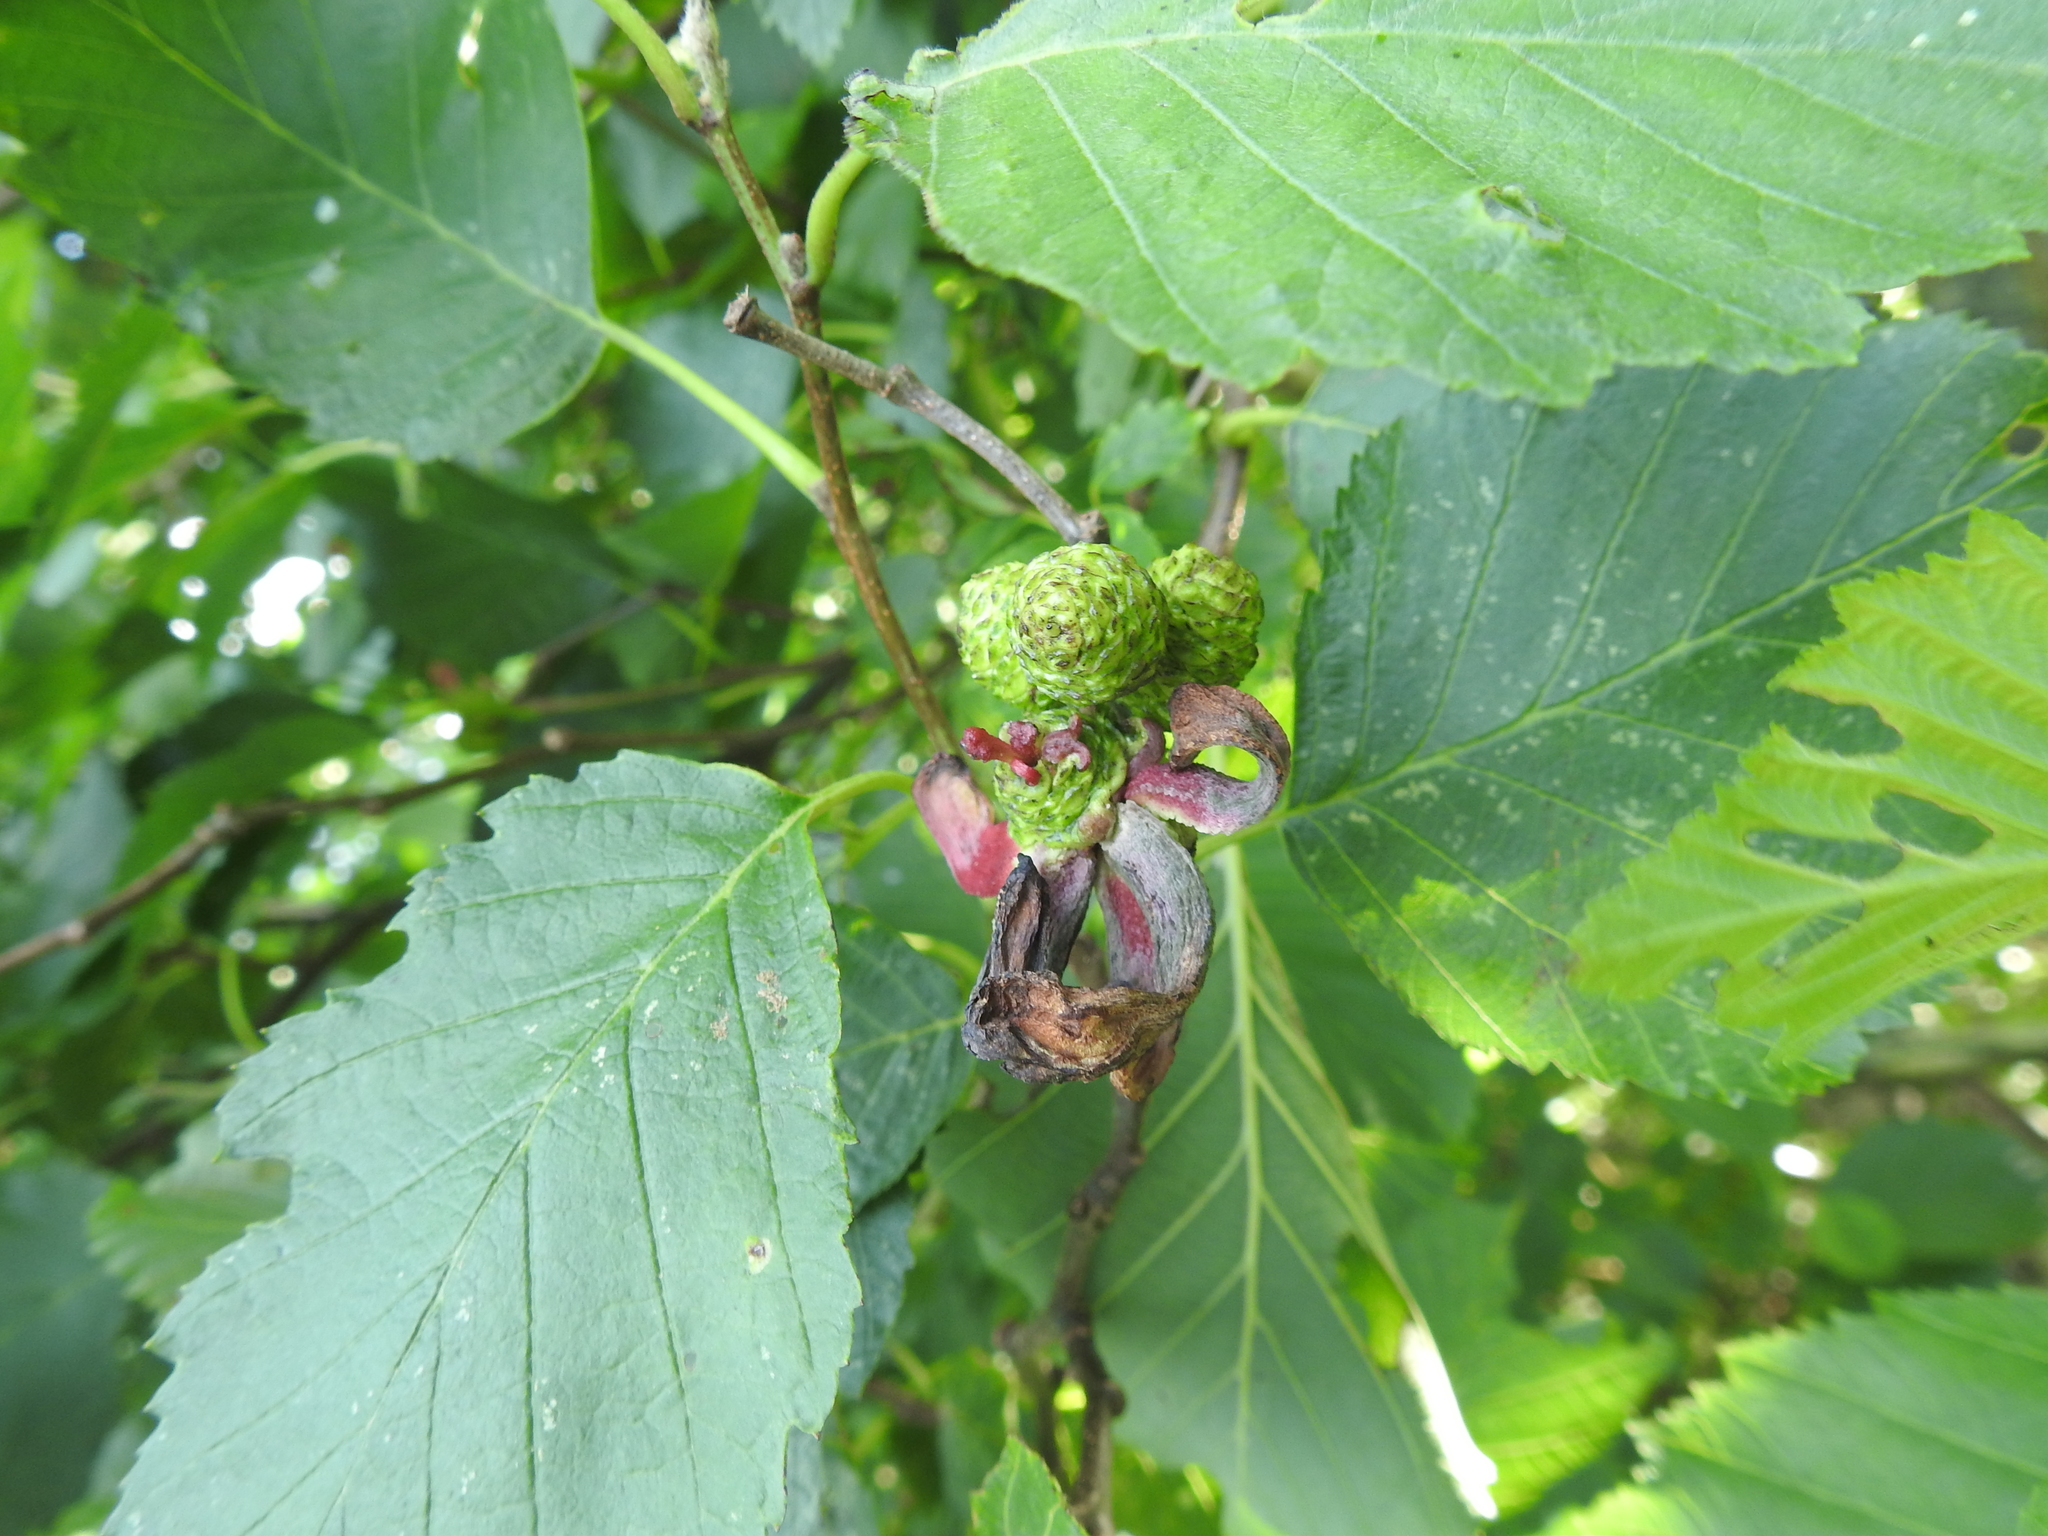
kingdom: Plantae
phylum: Tracheophyta
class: Magnoliopsida
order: Fagales
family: Betulaceae
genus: Alnus
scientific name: Alnus incana
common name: Grey alder
